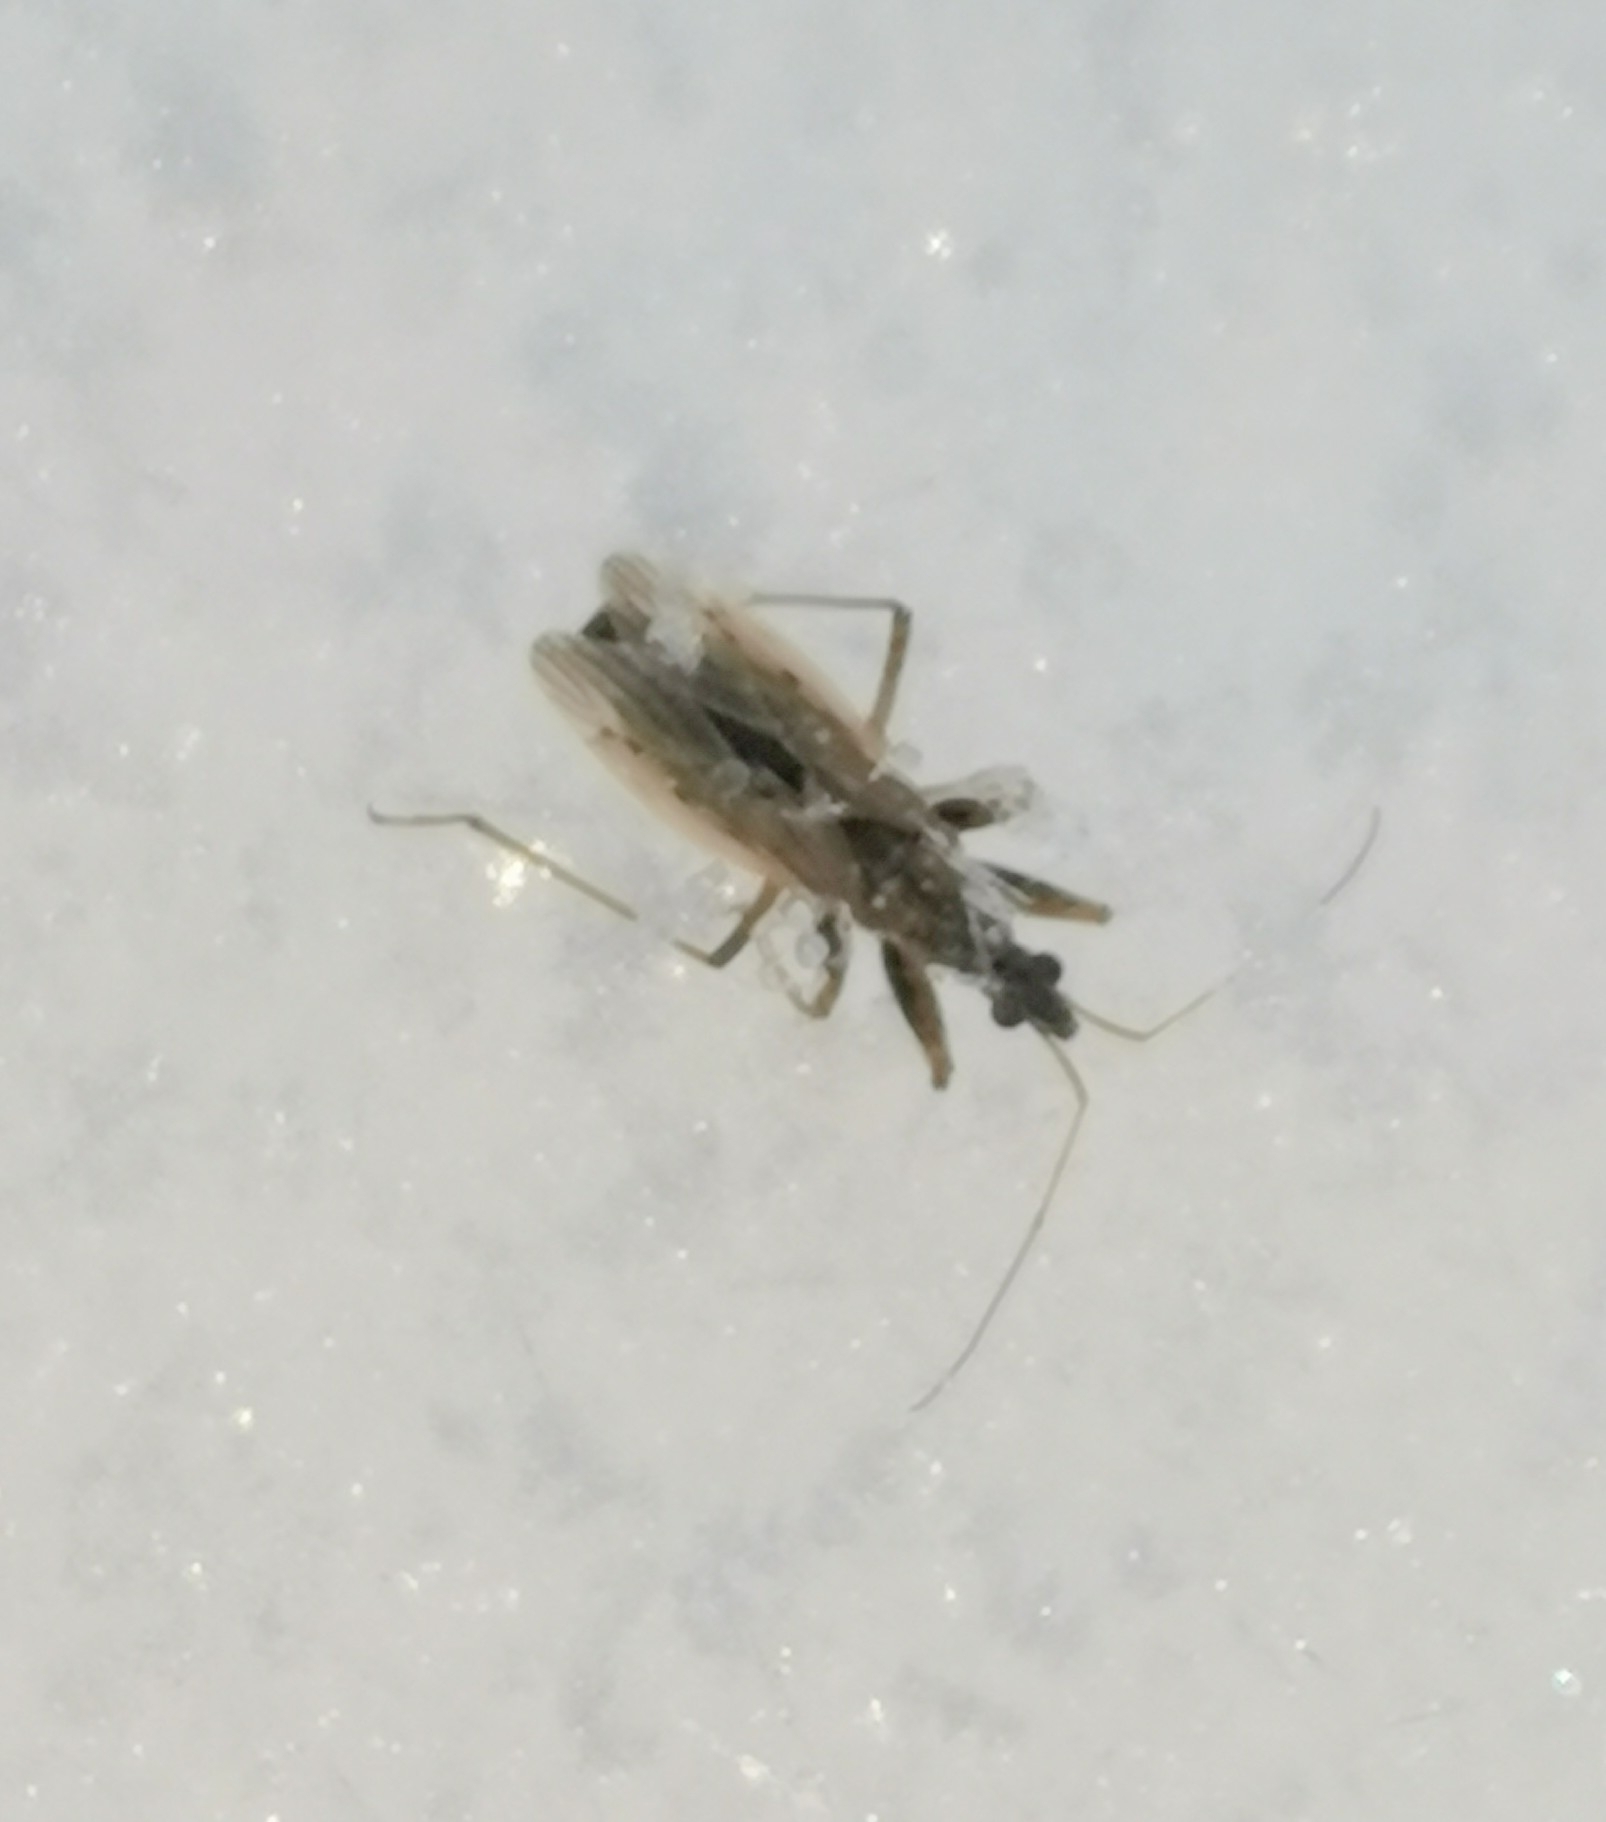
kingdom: Animalia
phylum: Arthropoda
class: Insecta
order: Hemiptera
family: Nabidae
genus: Nabis
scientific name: Nabis brevis
